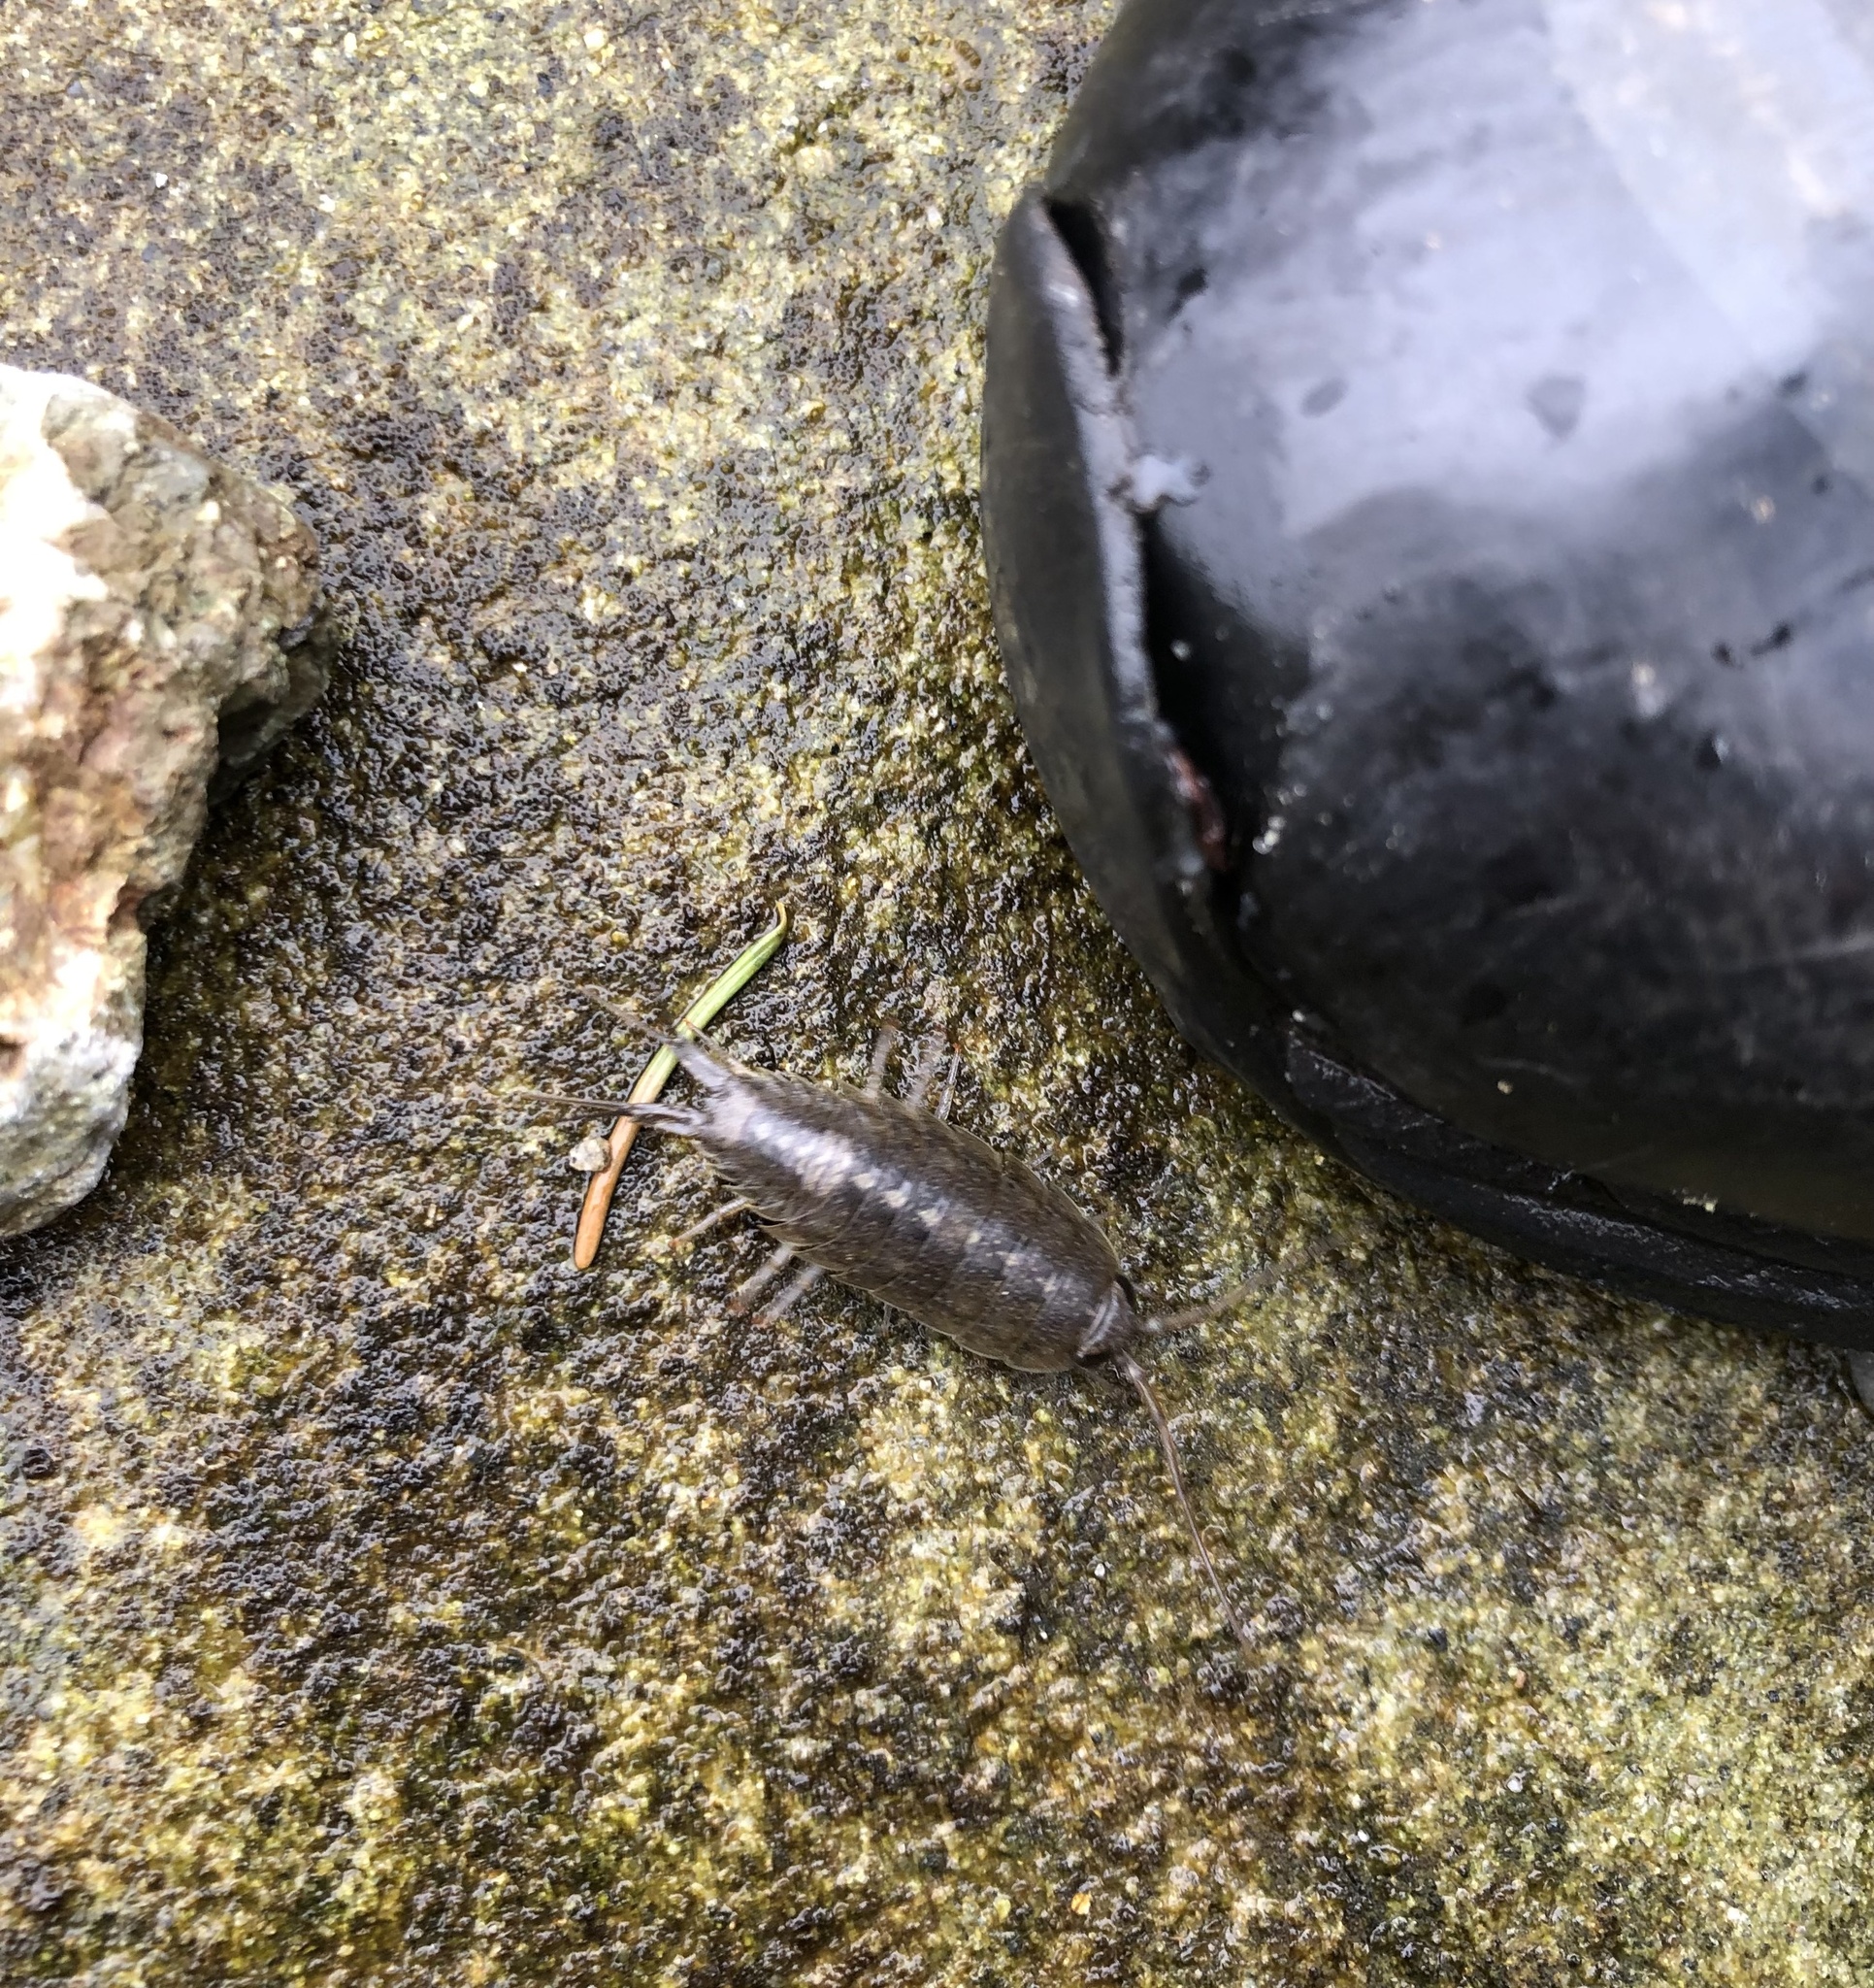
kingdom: Animalia
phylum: Arthropoda
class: Malacostraca
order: Isopoda
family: Ligiidae
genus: Ligia
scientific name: Ligia occidentalis
